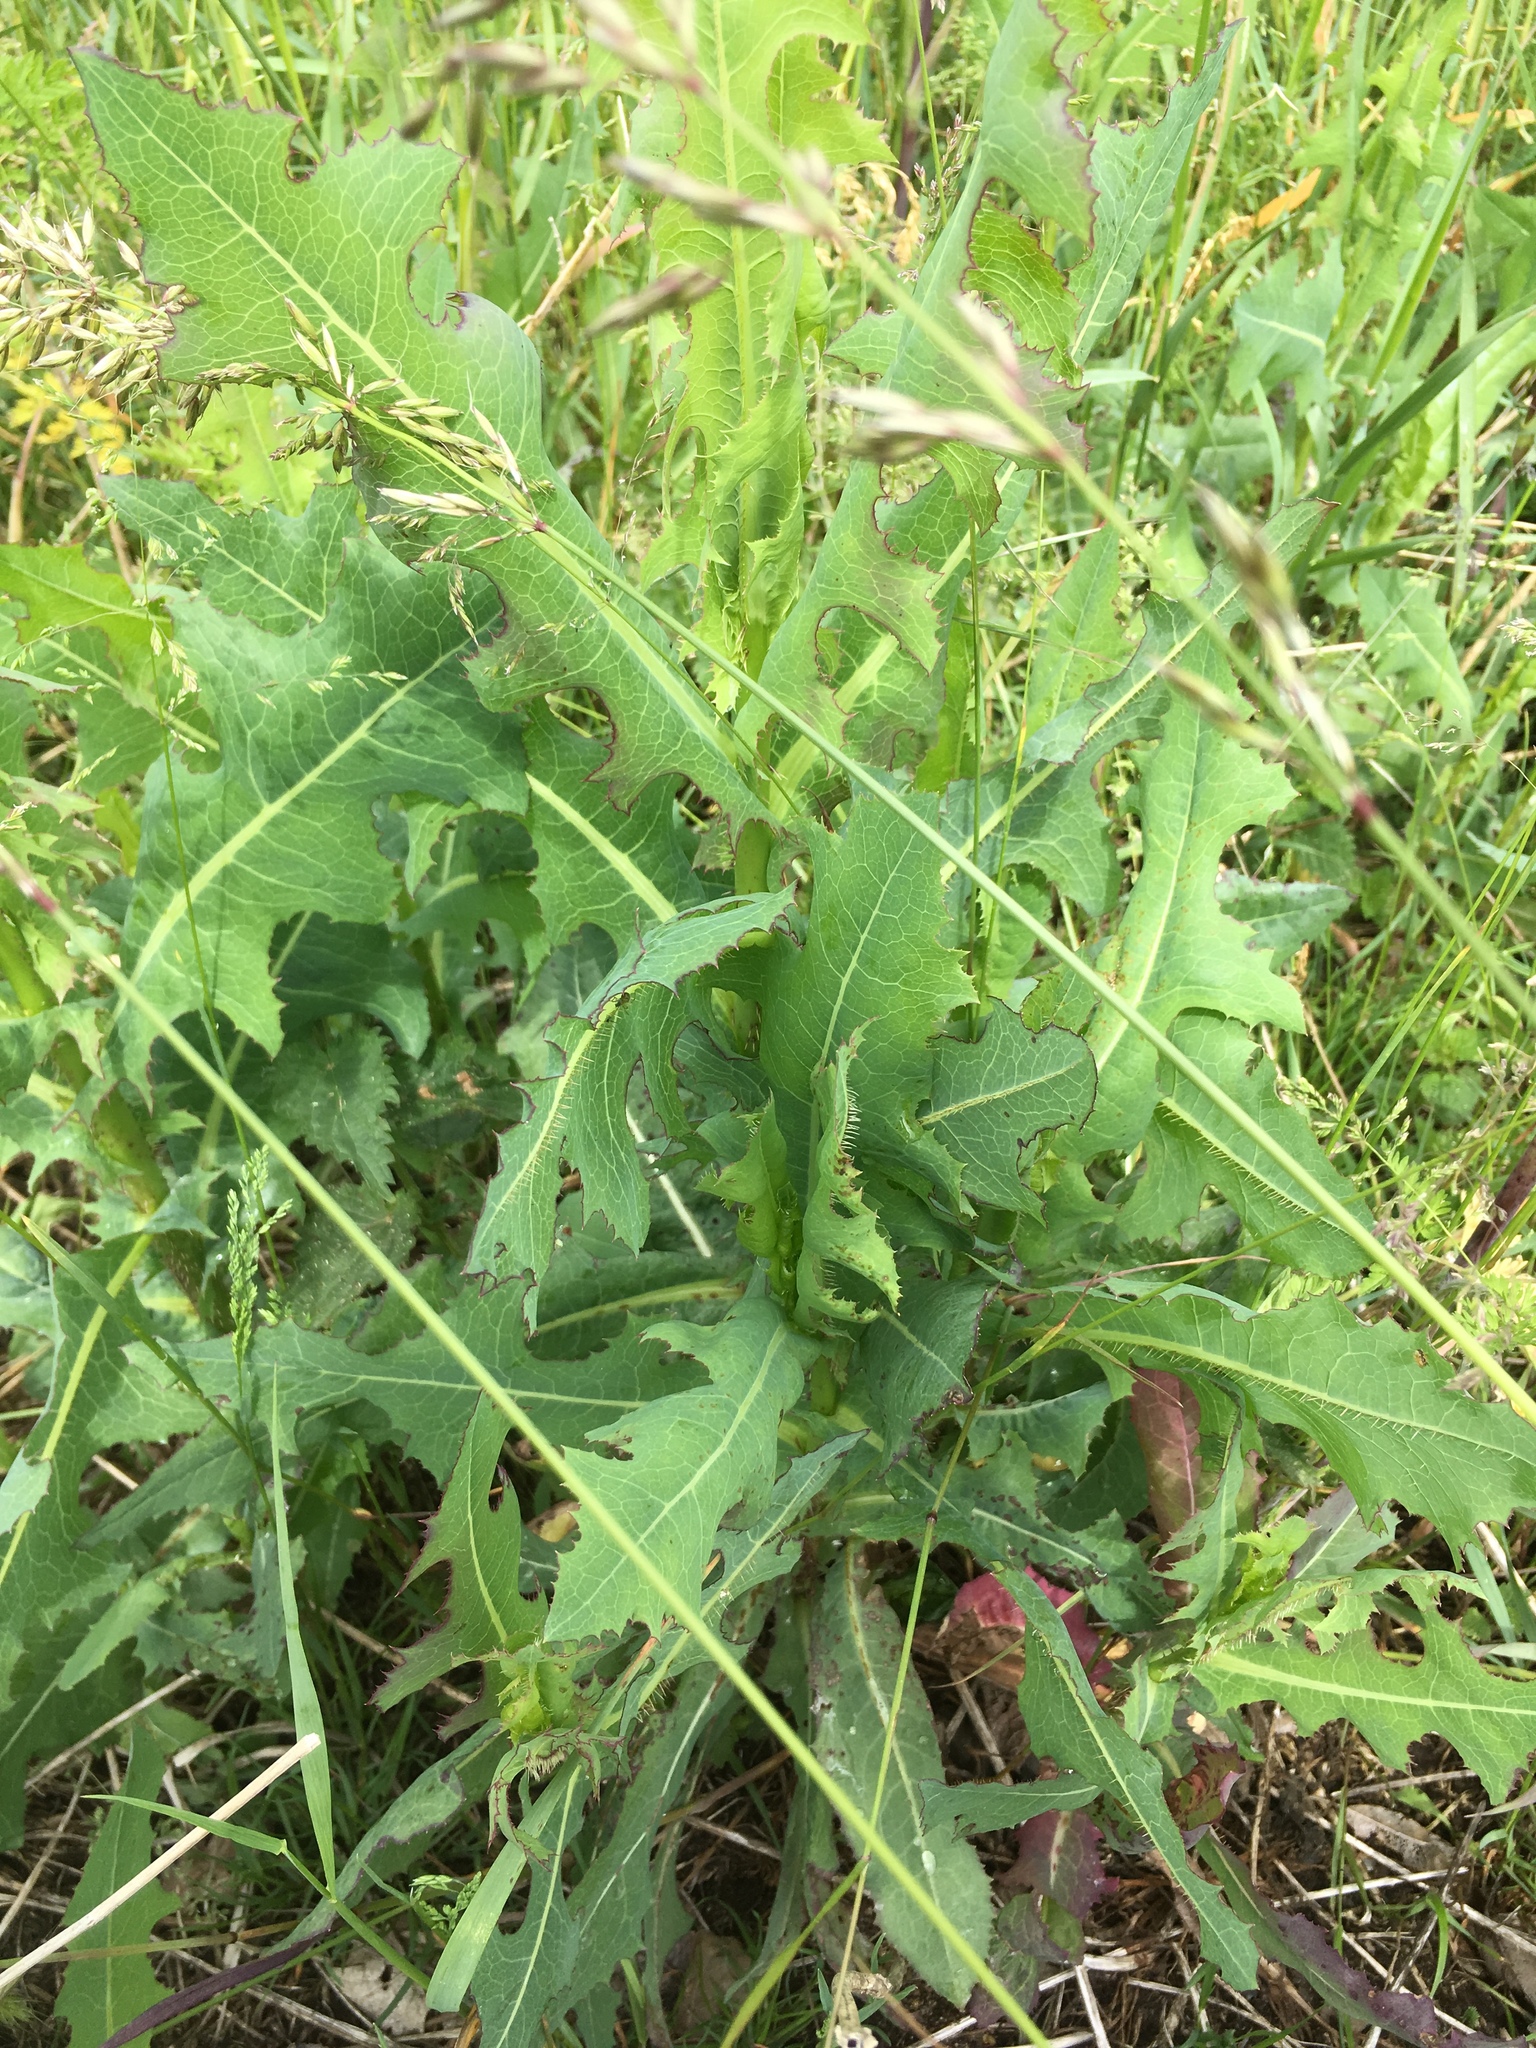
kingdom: Plantae
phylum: Tracheophyta
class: Magnoliopsida
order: Asterales
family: Asteraceae
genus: Lactuca
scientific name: Lactuca serriola
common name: Prickly lettuce
